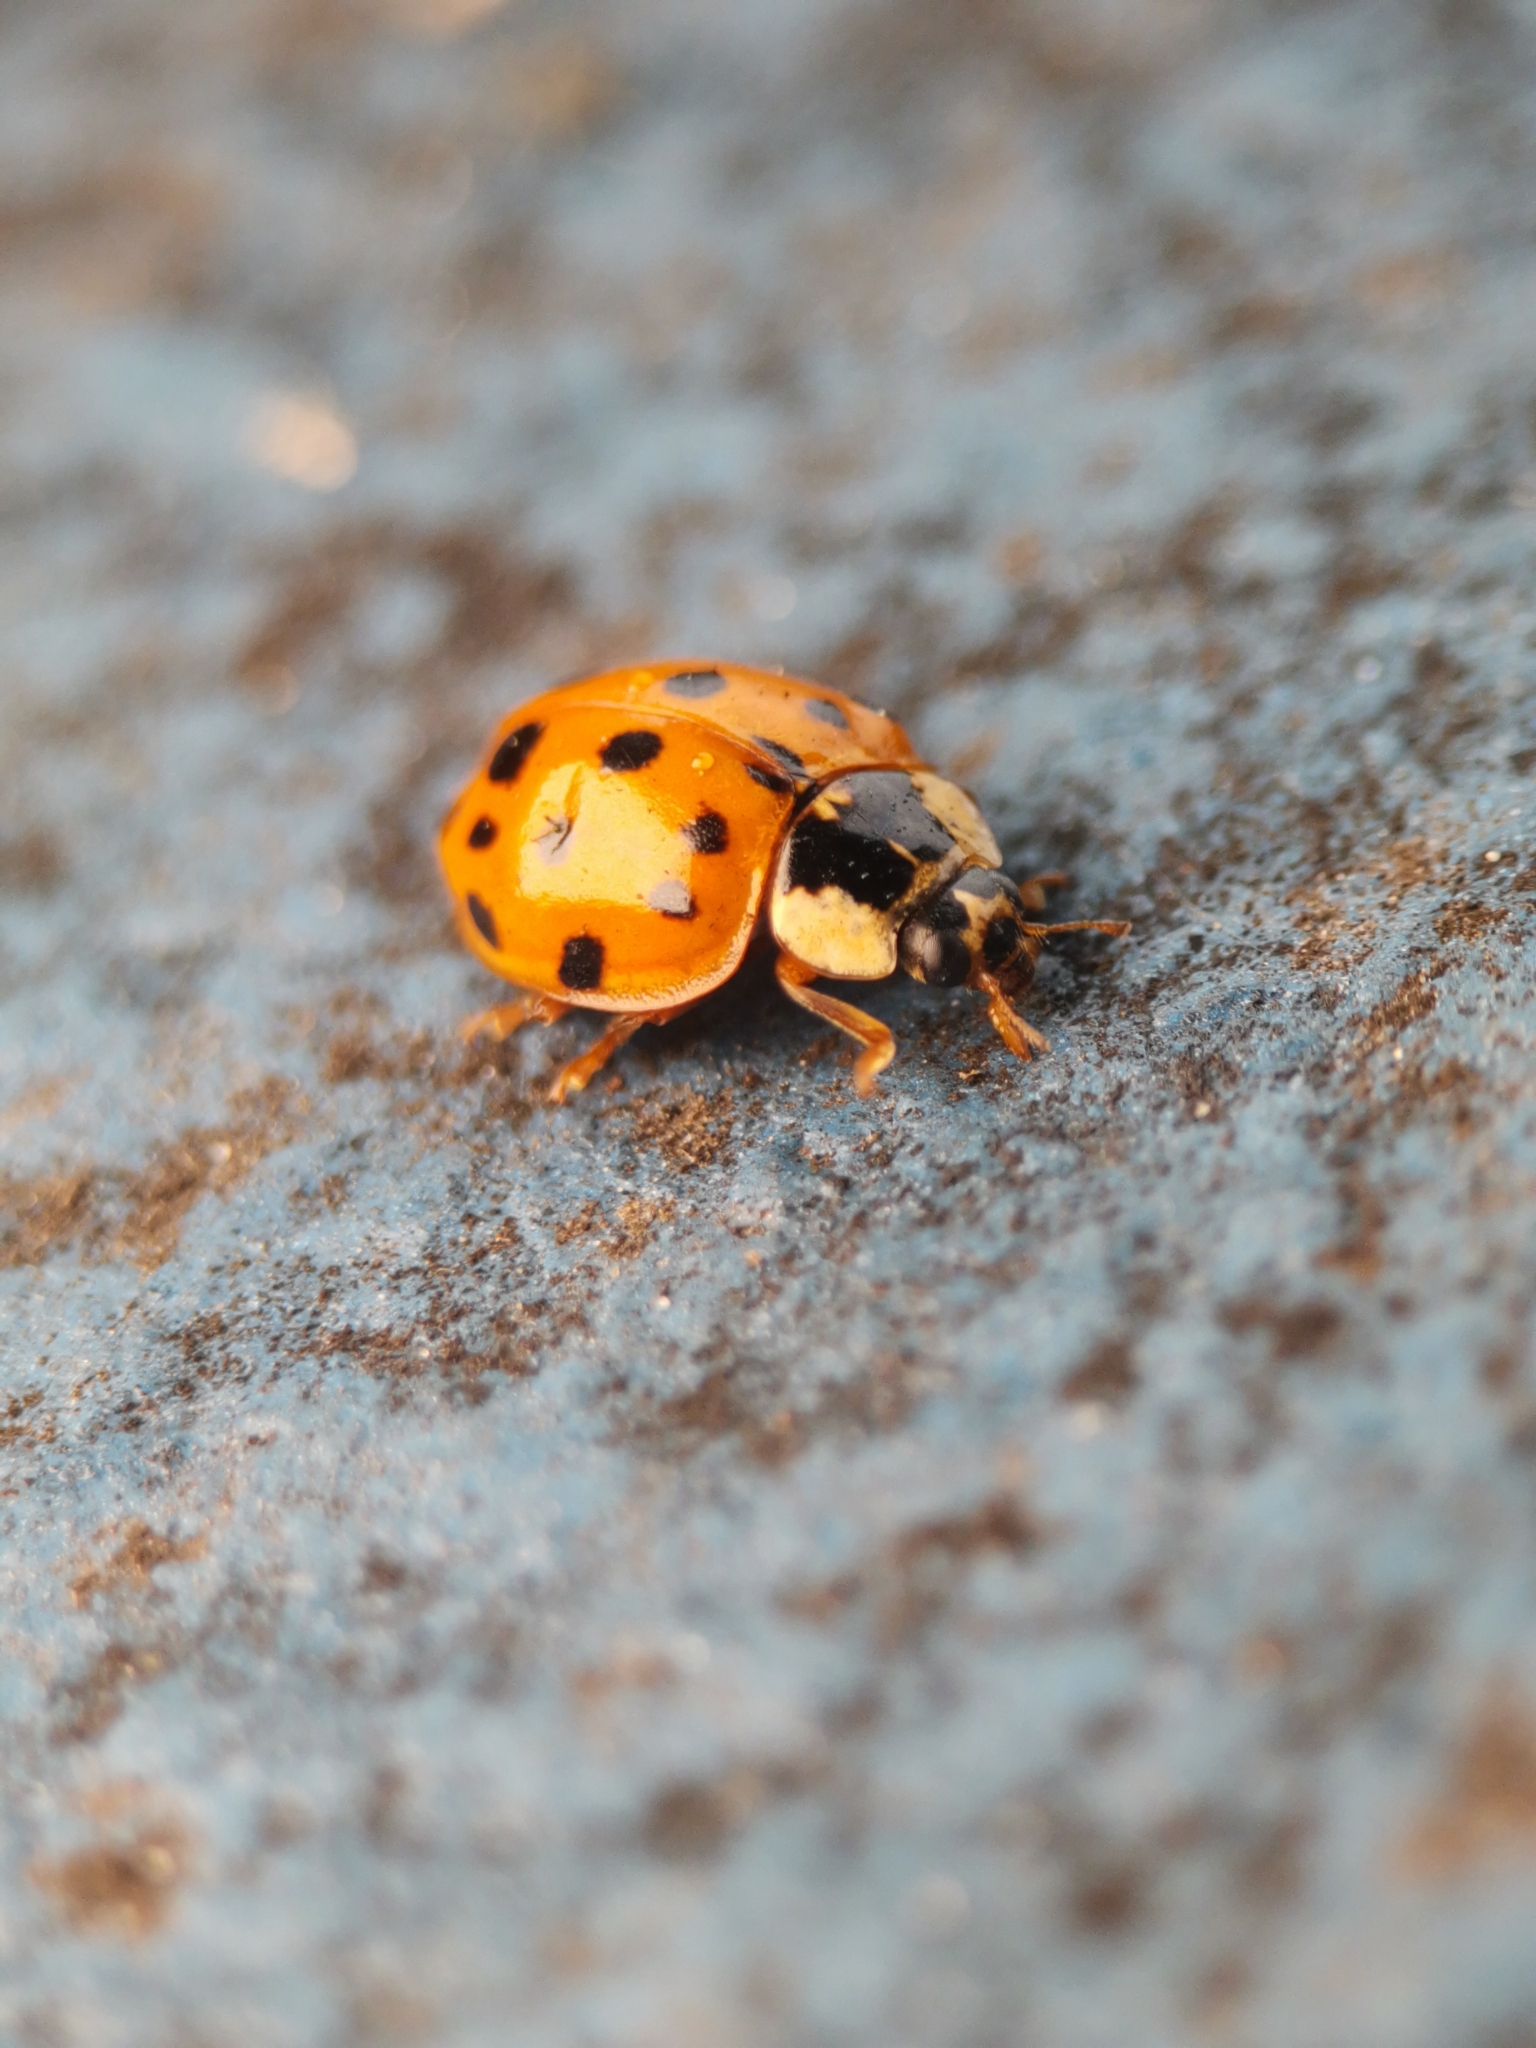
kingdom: Animalia
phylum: Arthropoda
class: Insecta
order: Coleoptera
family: Coccinellidae
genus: Harmonia
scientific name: Harmonia axyridis
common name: Harlequin ladybird
